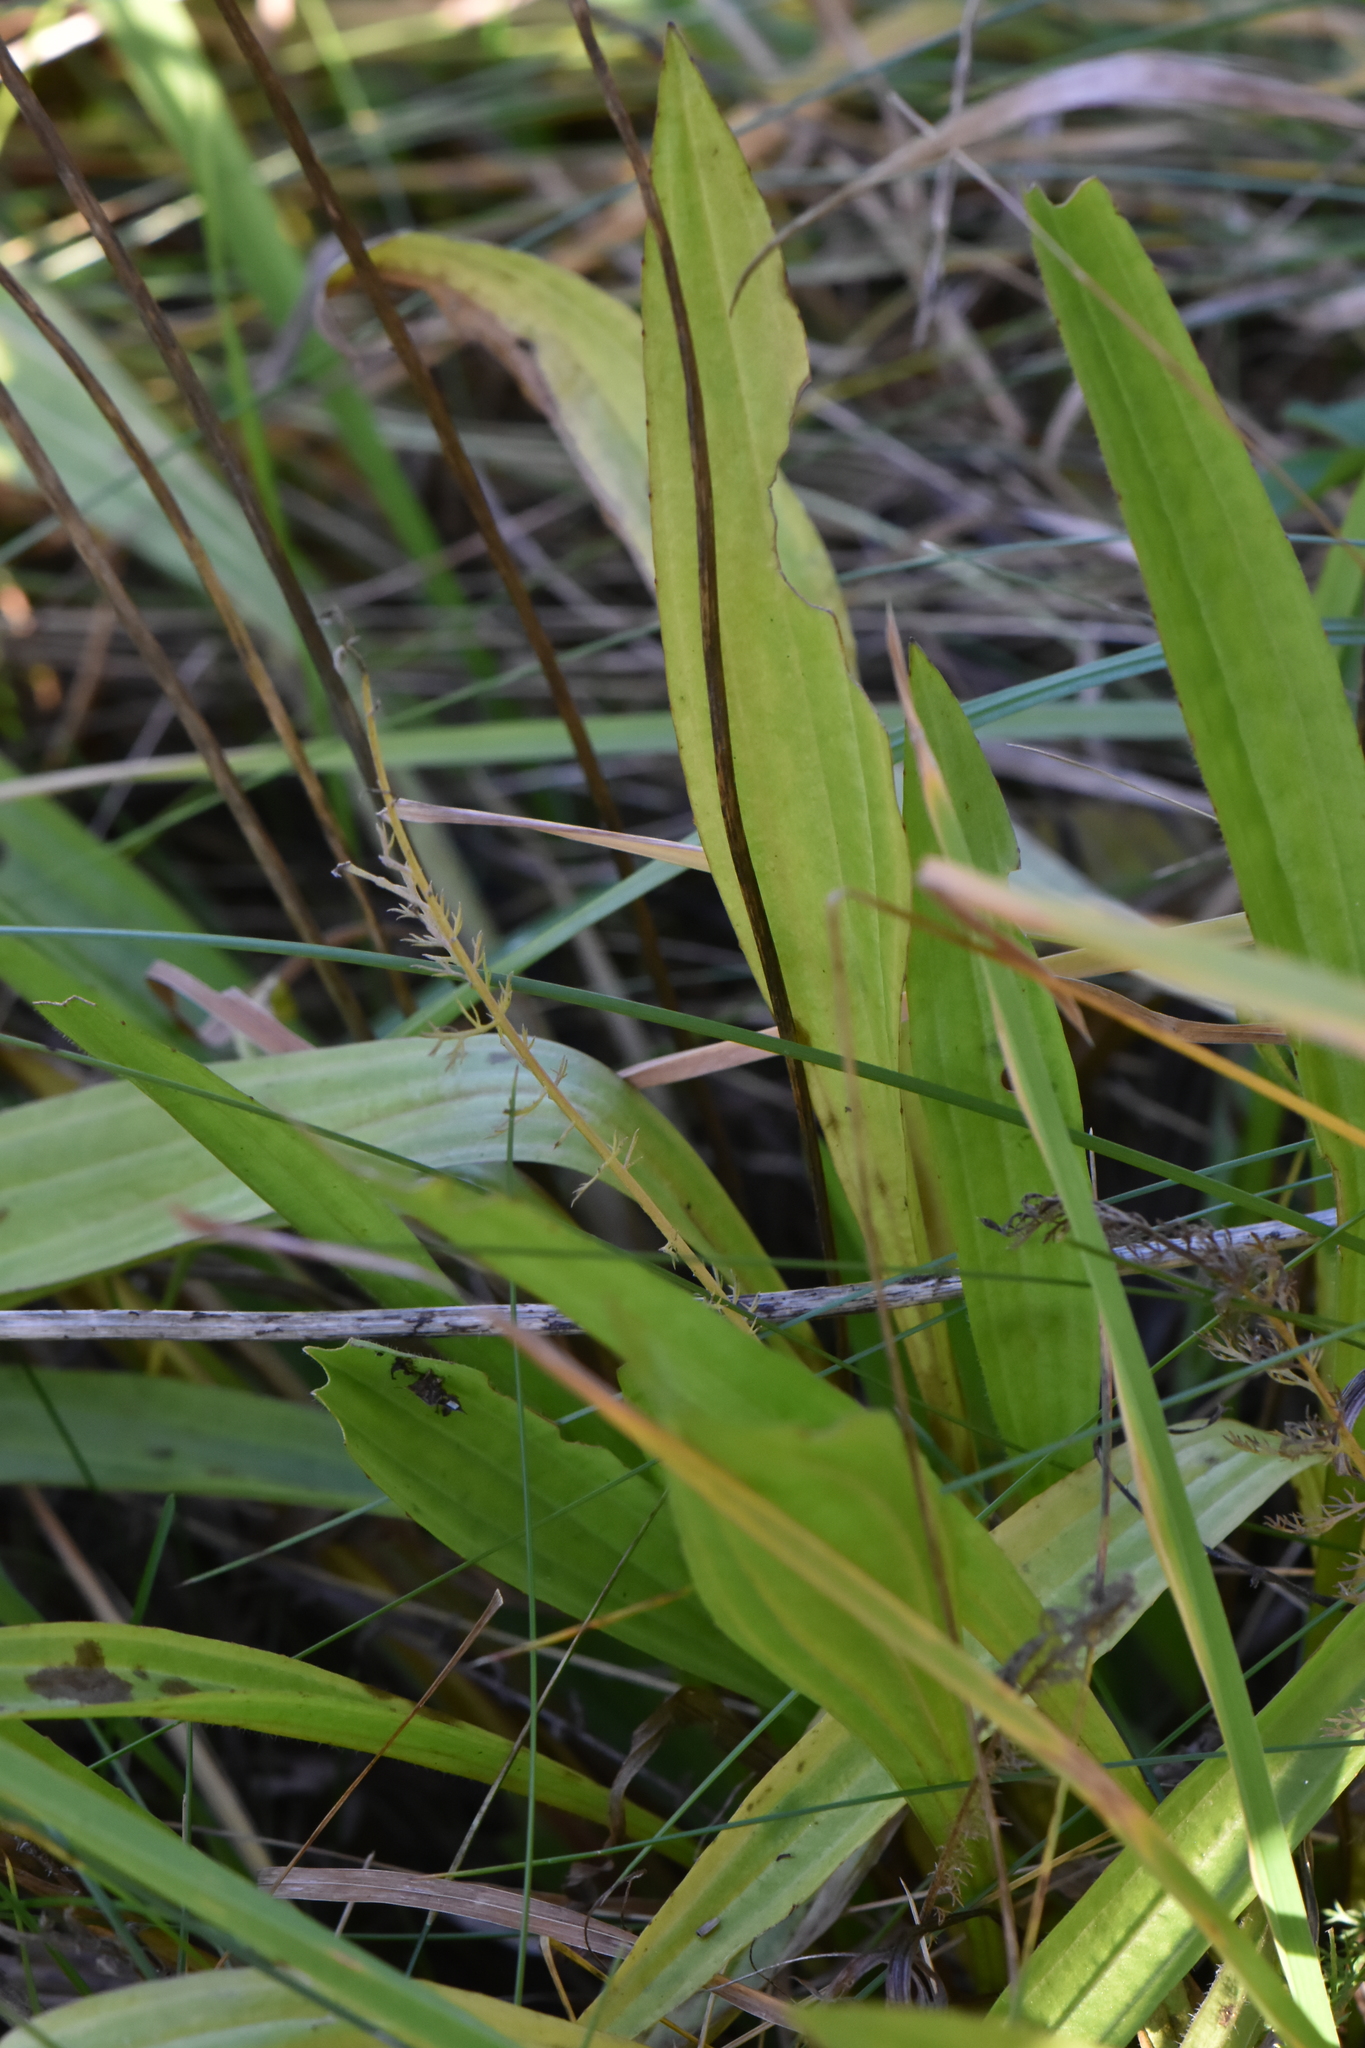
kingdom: Plantae
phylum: Tracheophyta
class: Magnoliopsida
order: Lamiales
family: Plantaginaceae
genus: Plantago
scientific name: Plantago lanceolata
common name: Ribwort plantain
